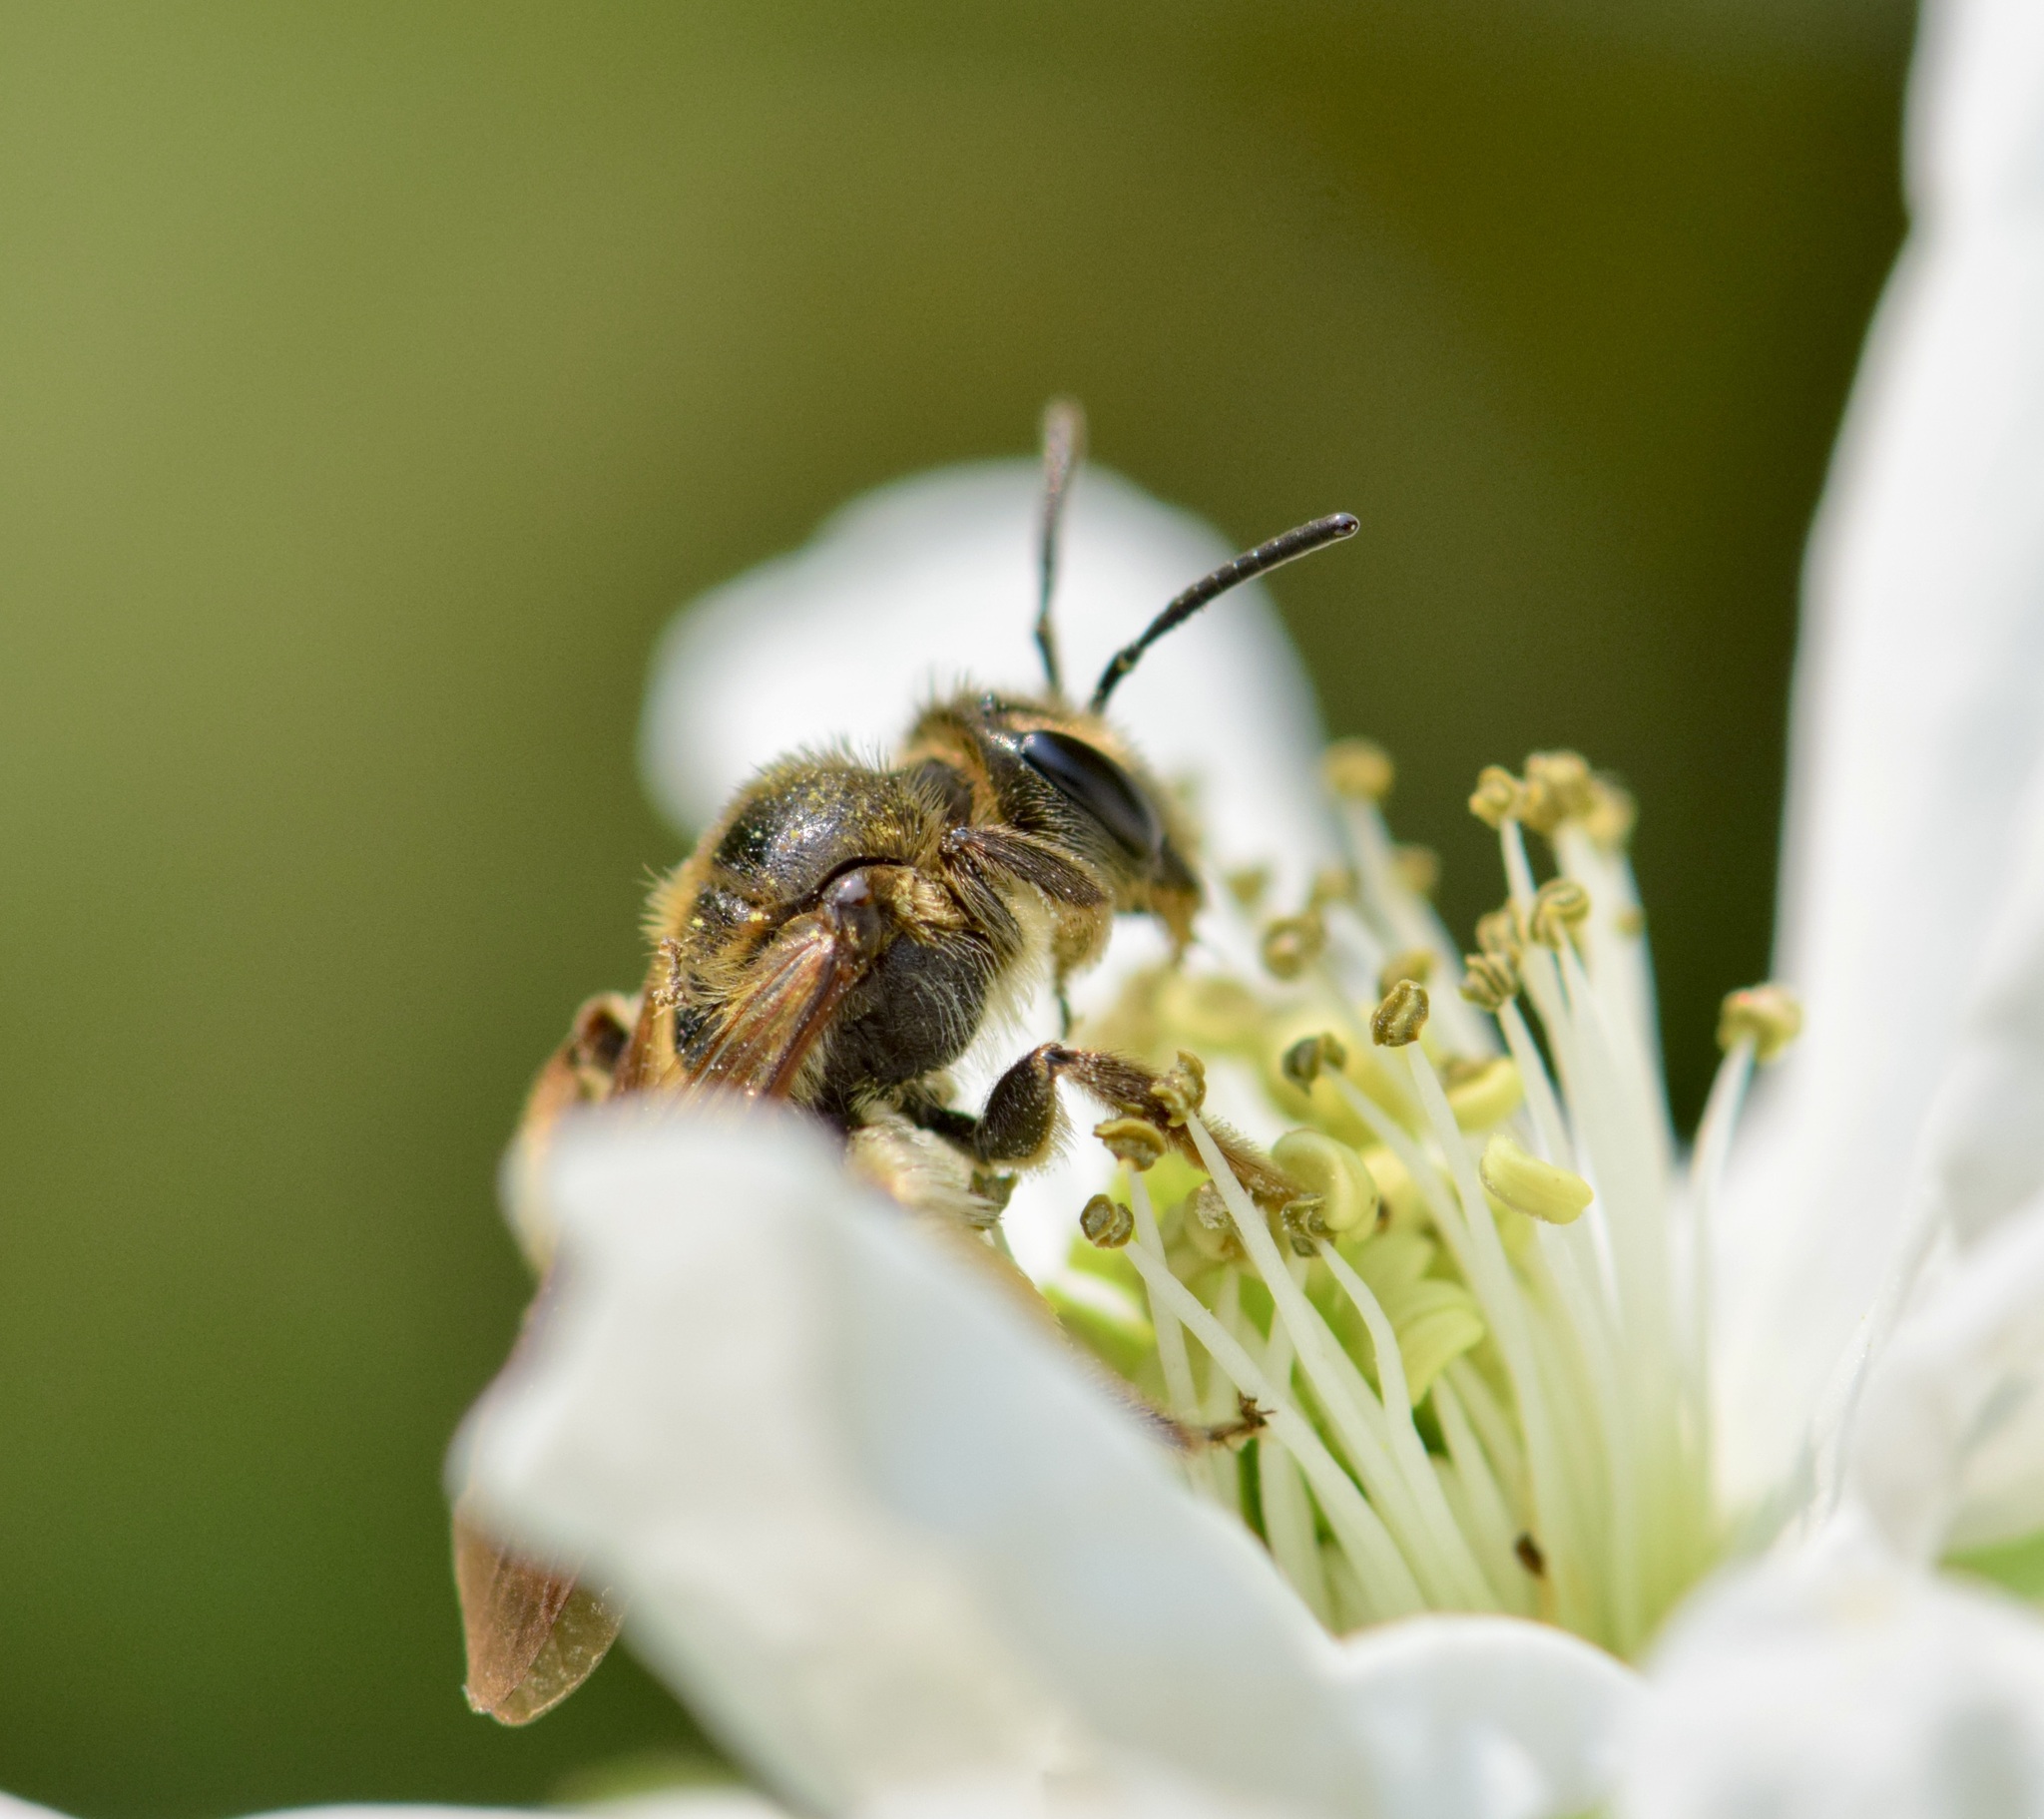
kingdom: Animalia
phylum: Arthropoda
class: Insecta
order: Hymenoptera
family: Andrenidae
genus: Andrena
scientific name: Andrena crataegi
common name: Hawthorn mining bee
